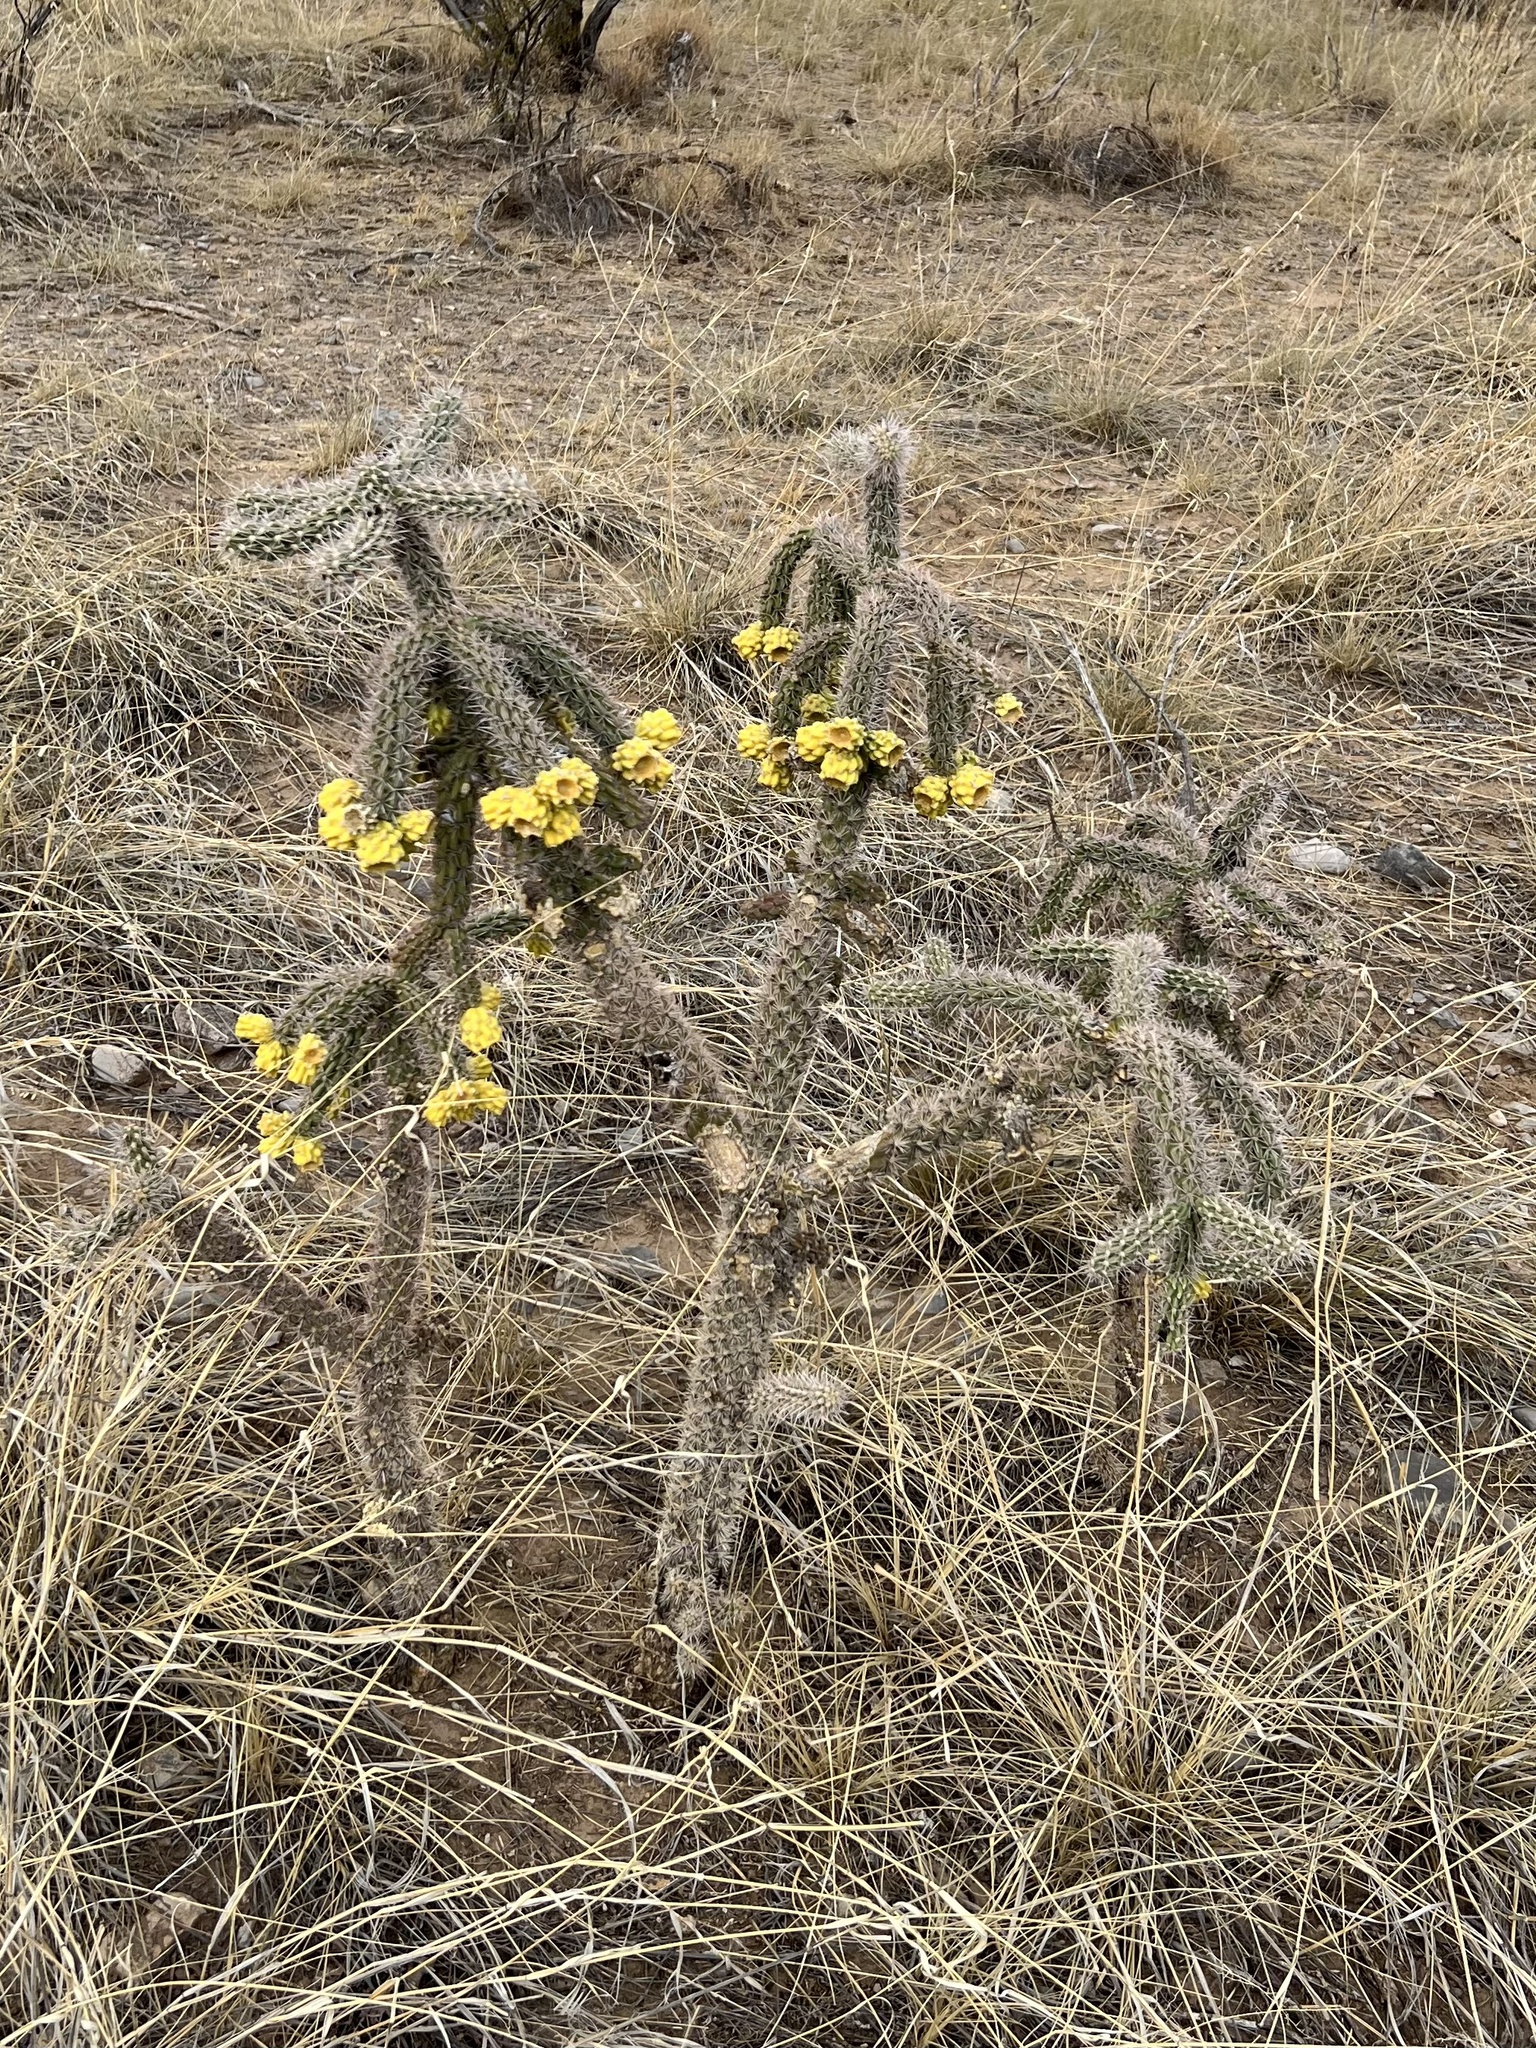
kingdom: Plantae
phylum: Tracheophyta
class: Magnoliopsida
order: Caryophyllales
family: Cactaceae
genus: Cylindropuntia
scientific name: Cylindropuntia imbricata
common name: Candelabrum cactus
